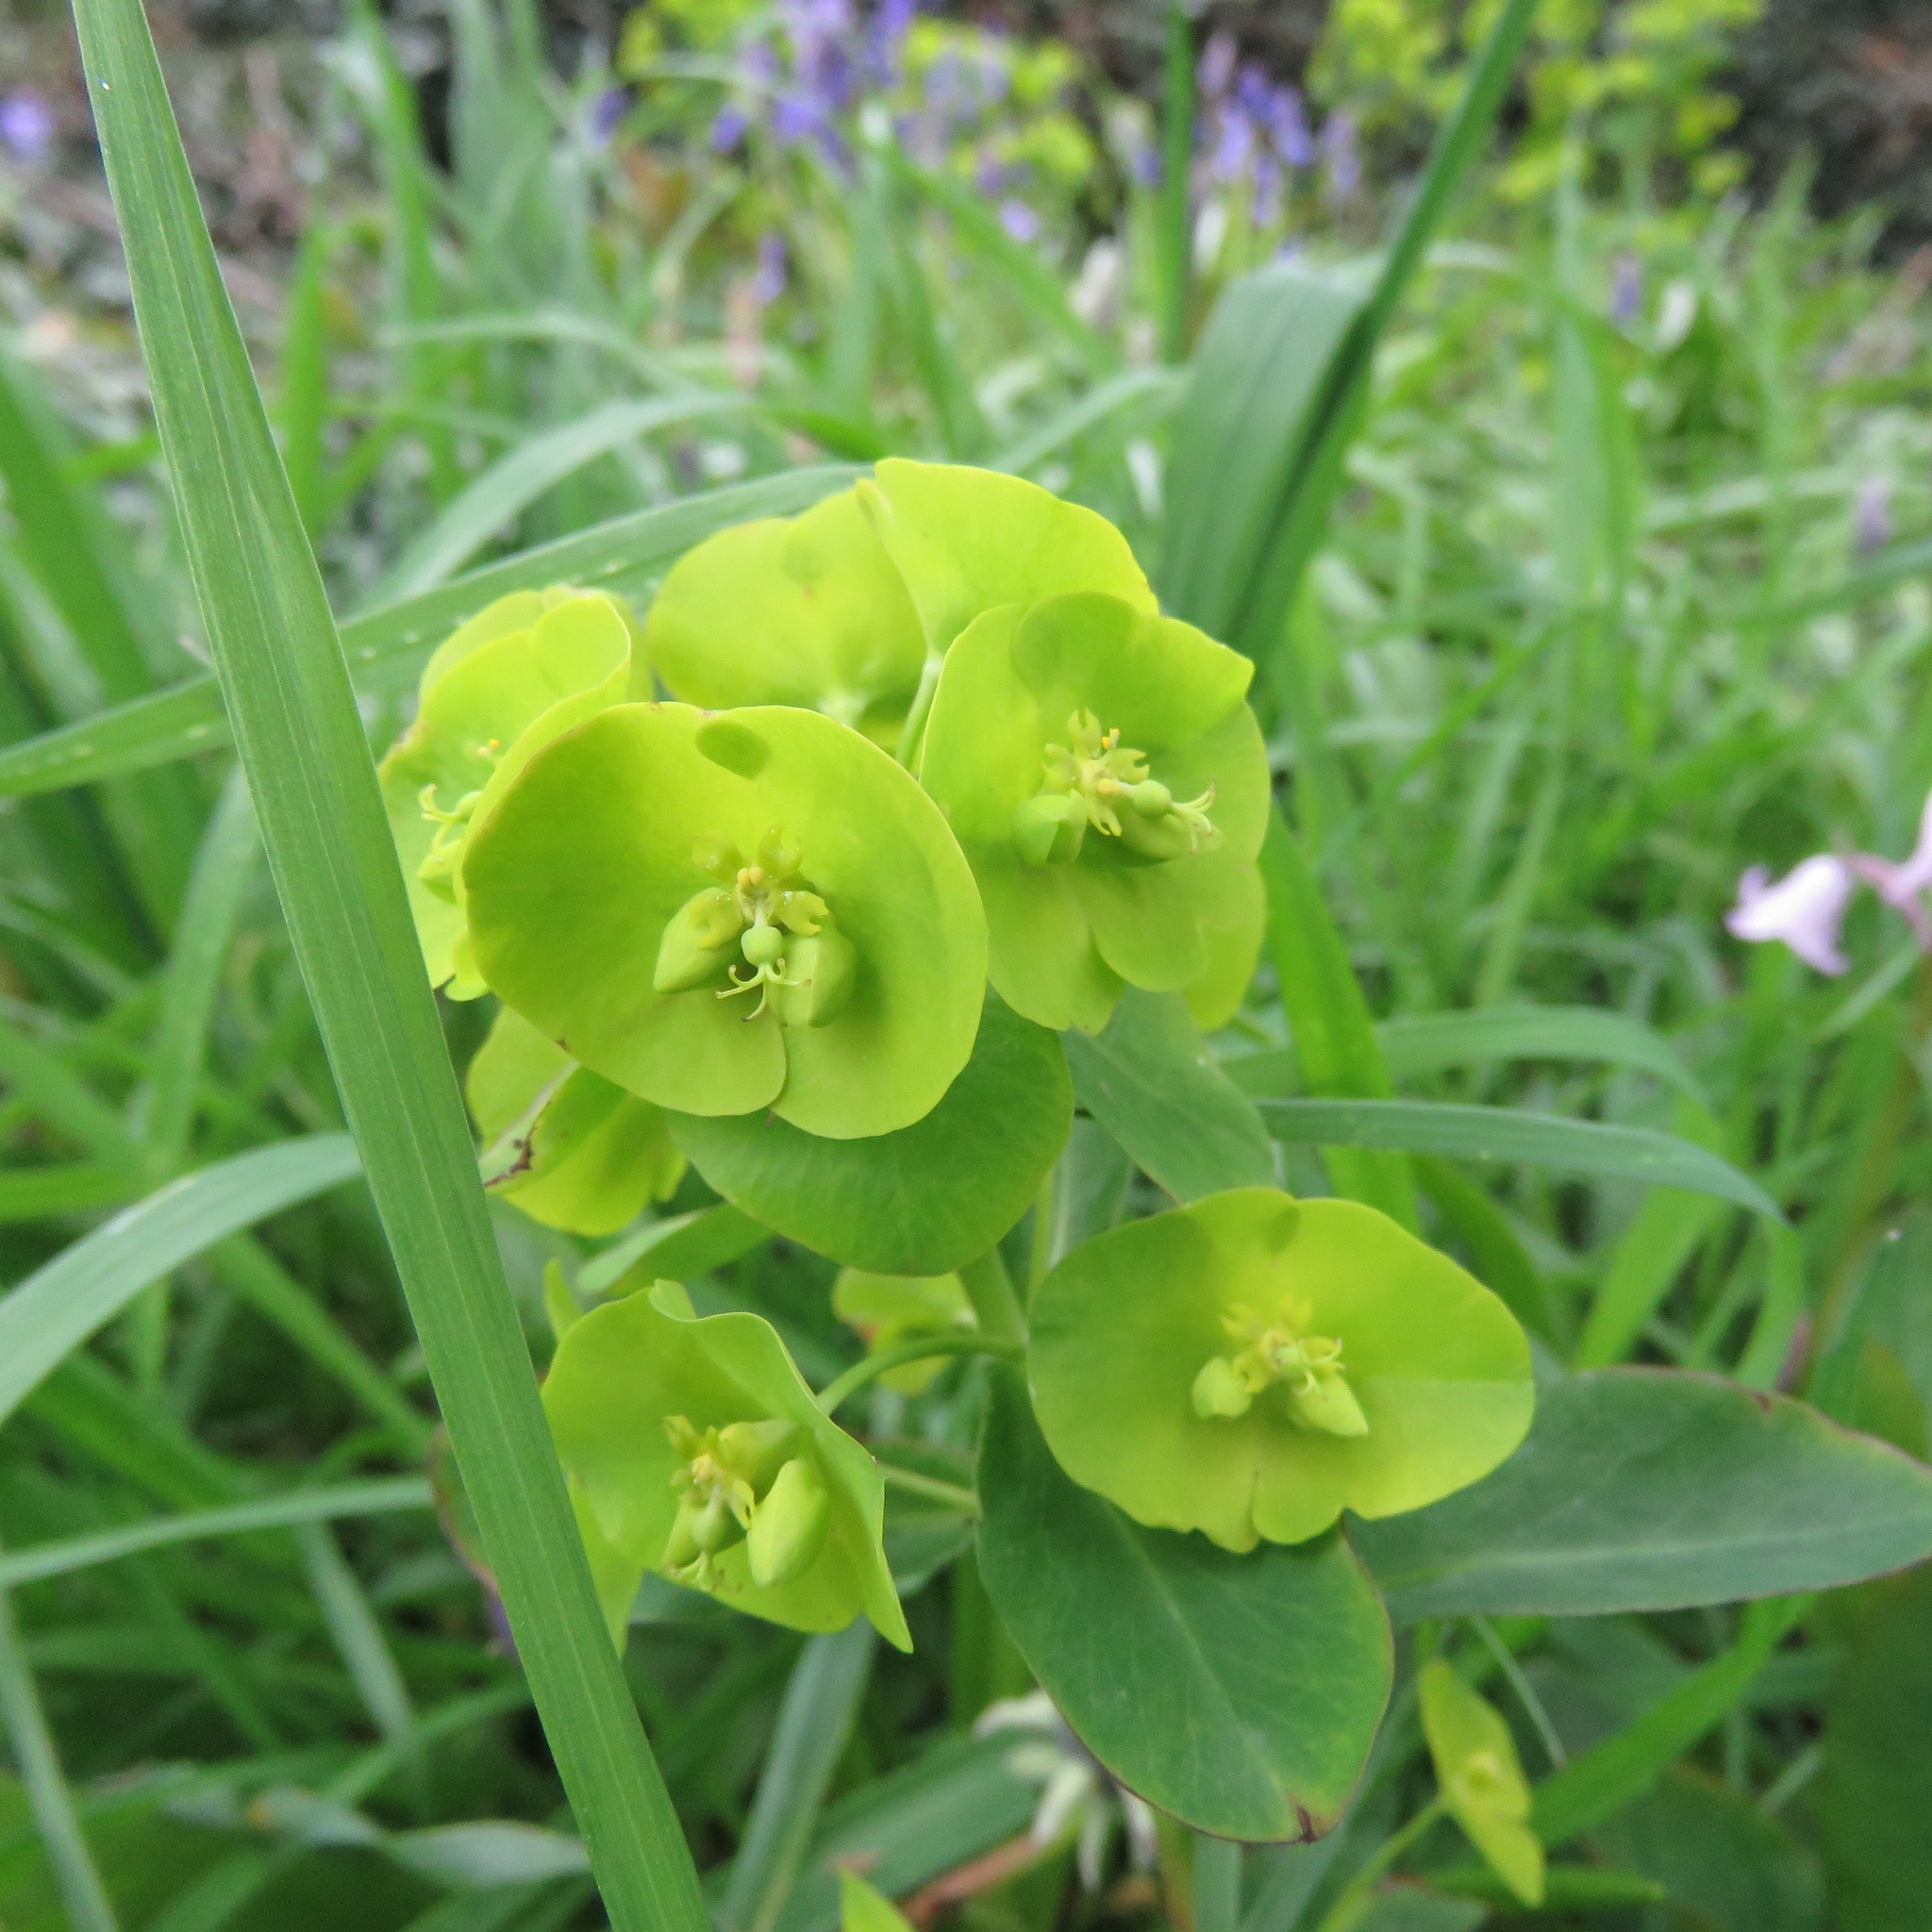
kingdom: Plantae
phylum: Tracheophyta
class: Magnoliopsida
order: Malpighiales
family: Euphorbiaceae
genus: Euphorbia
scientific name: Euphorbia amygdaloides
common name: Wood spurge
